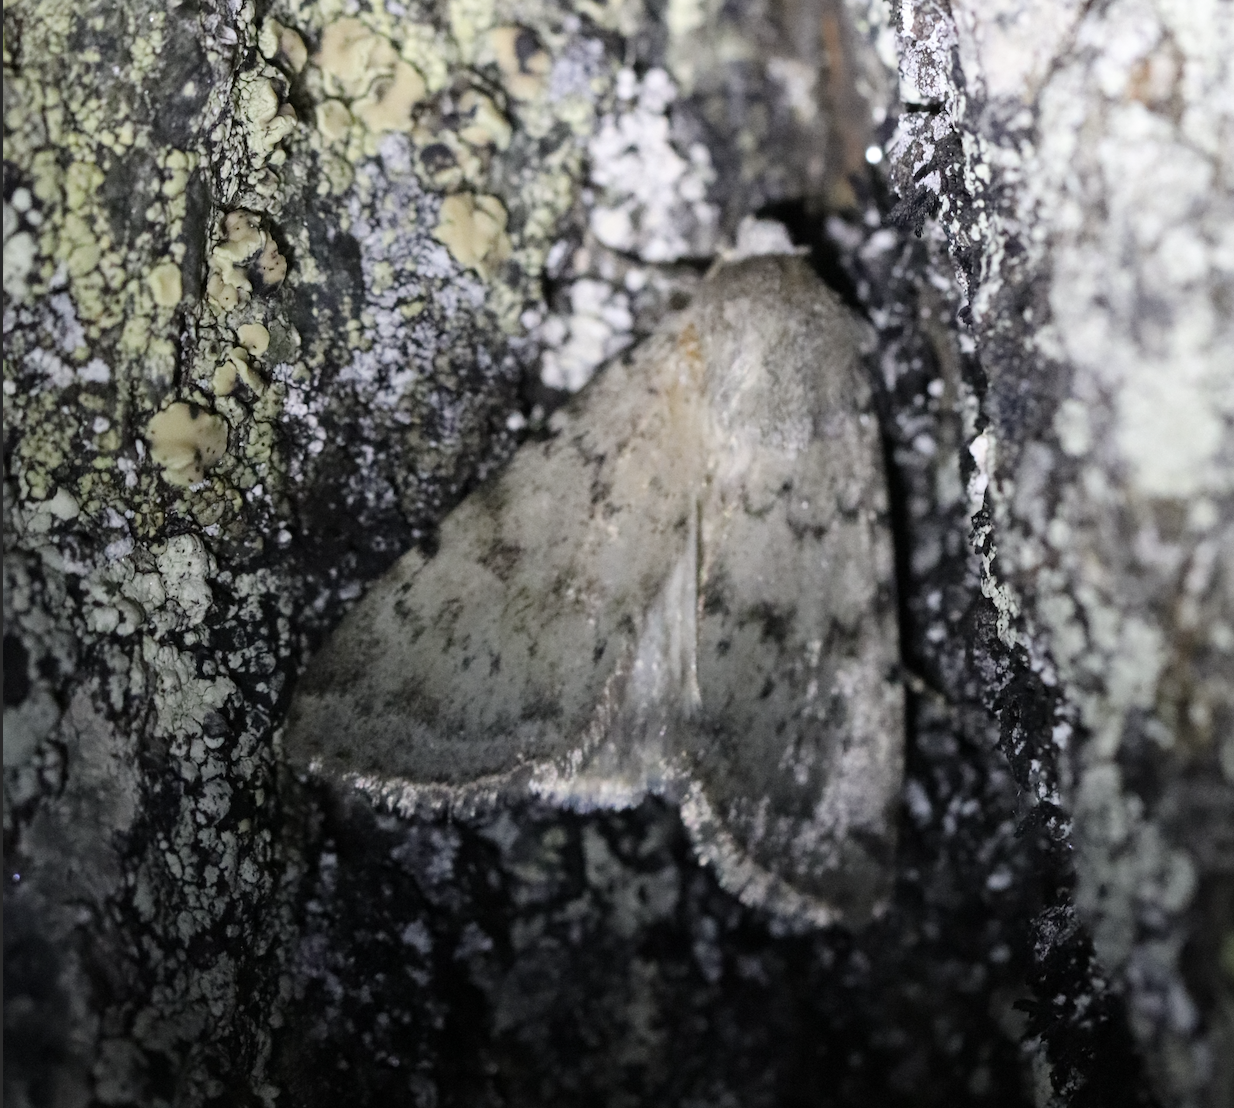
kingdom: Animalia
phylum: Arthropoda
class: Insecta
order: Lepidoptera
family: Noctuidae
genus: Epipsilia
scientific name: Epipsilia grisescens
